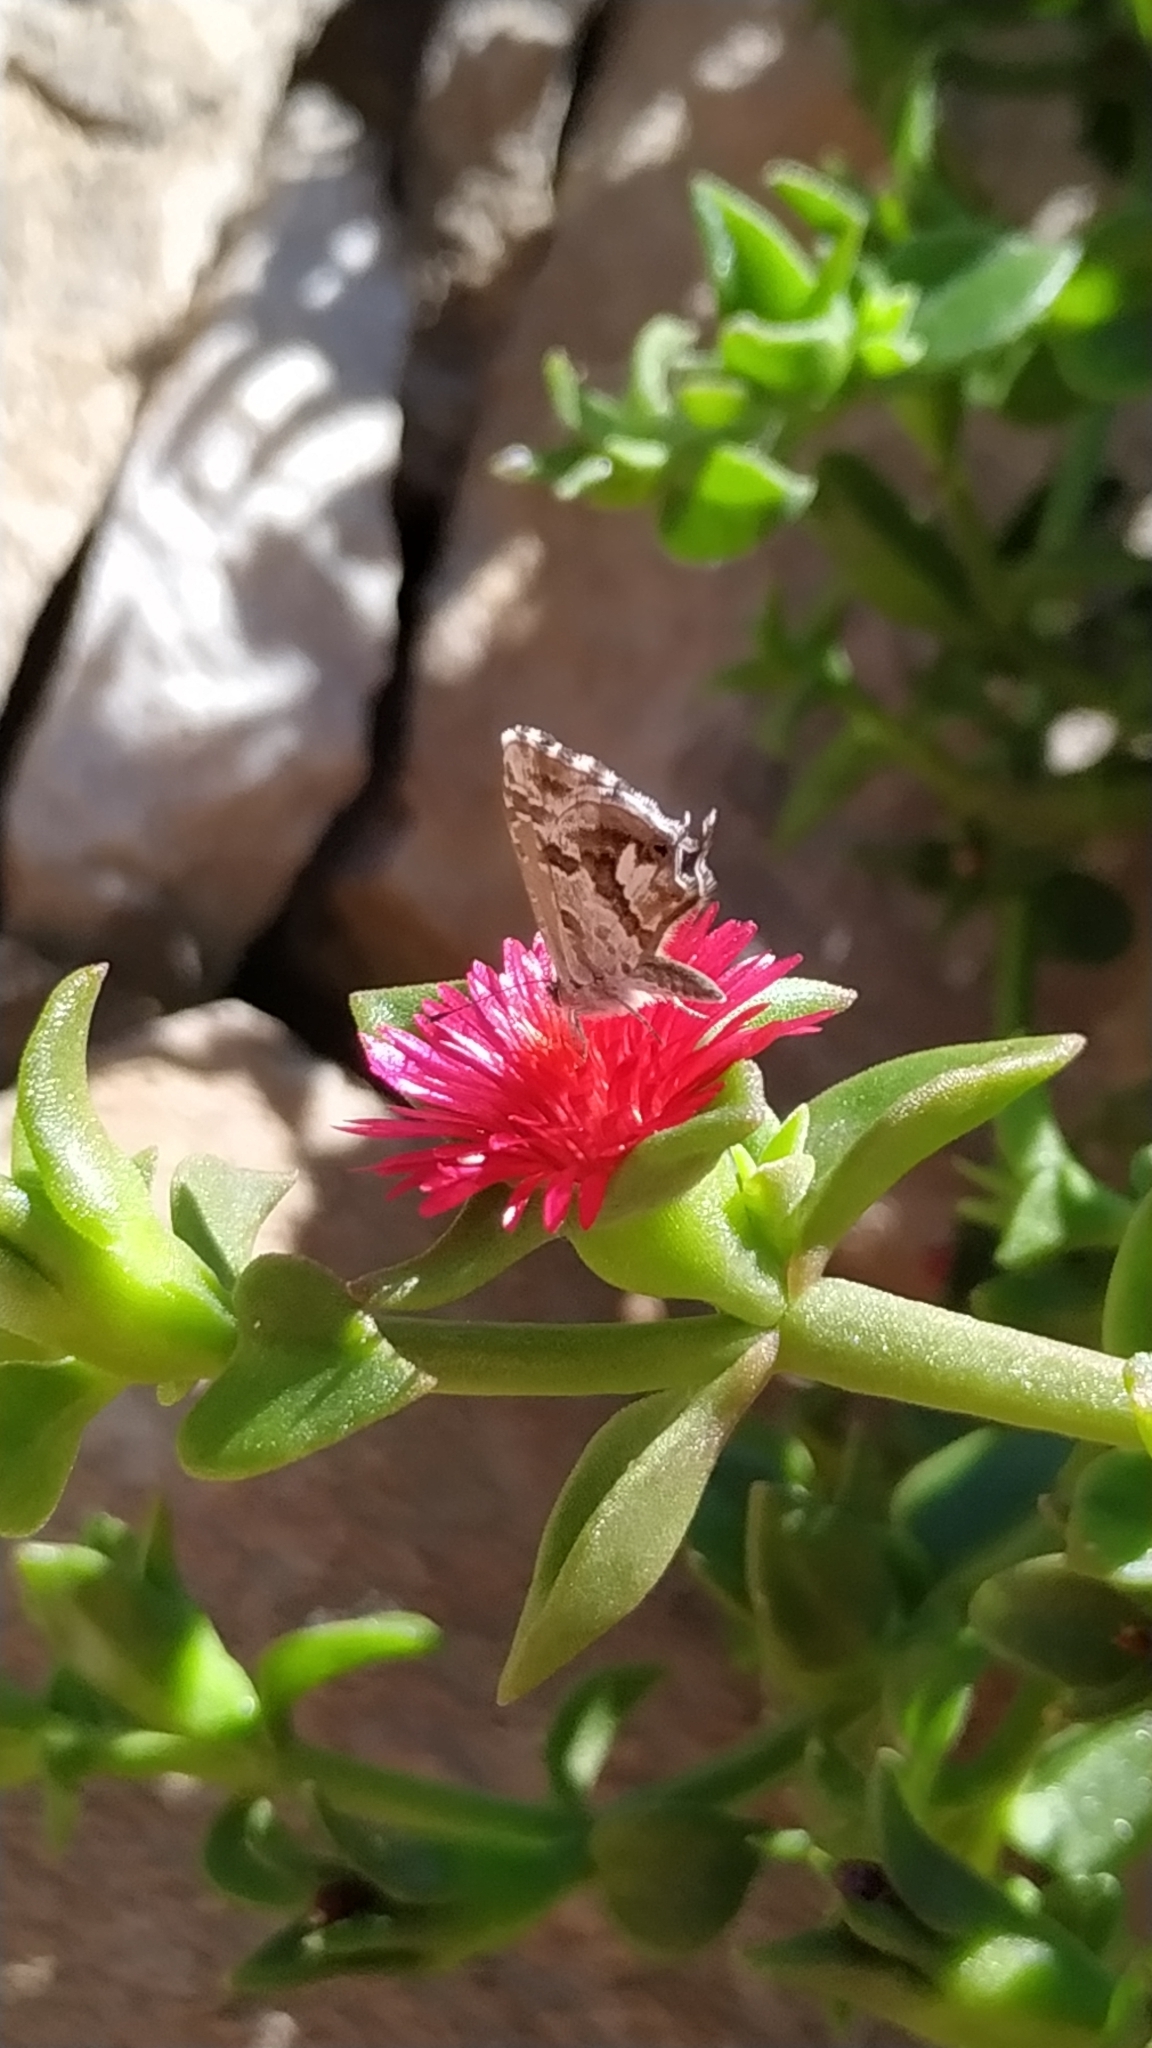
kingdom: Animalia
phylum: Arthropoda
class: Insecta
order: Lepidoptera
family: Lycaenidae
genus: Cacyreus
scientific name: Cacyreus marshalli
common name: Geranium bronze
